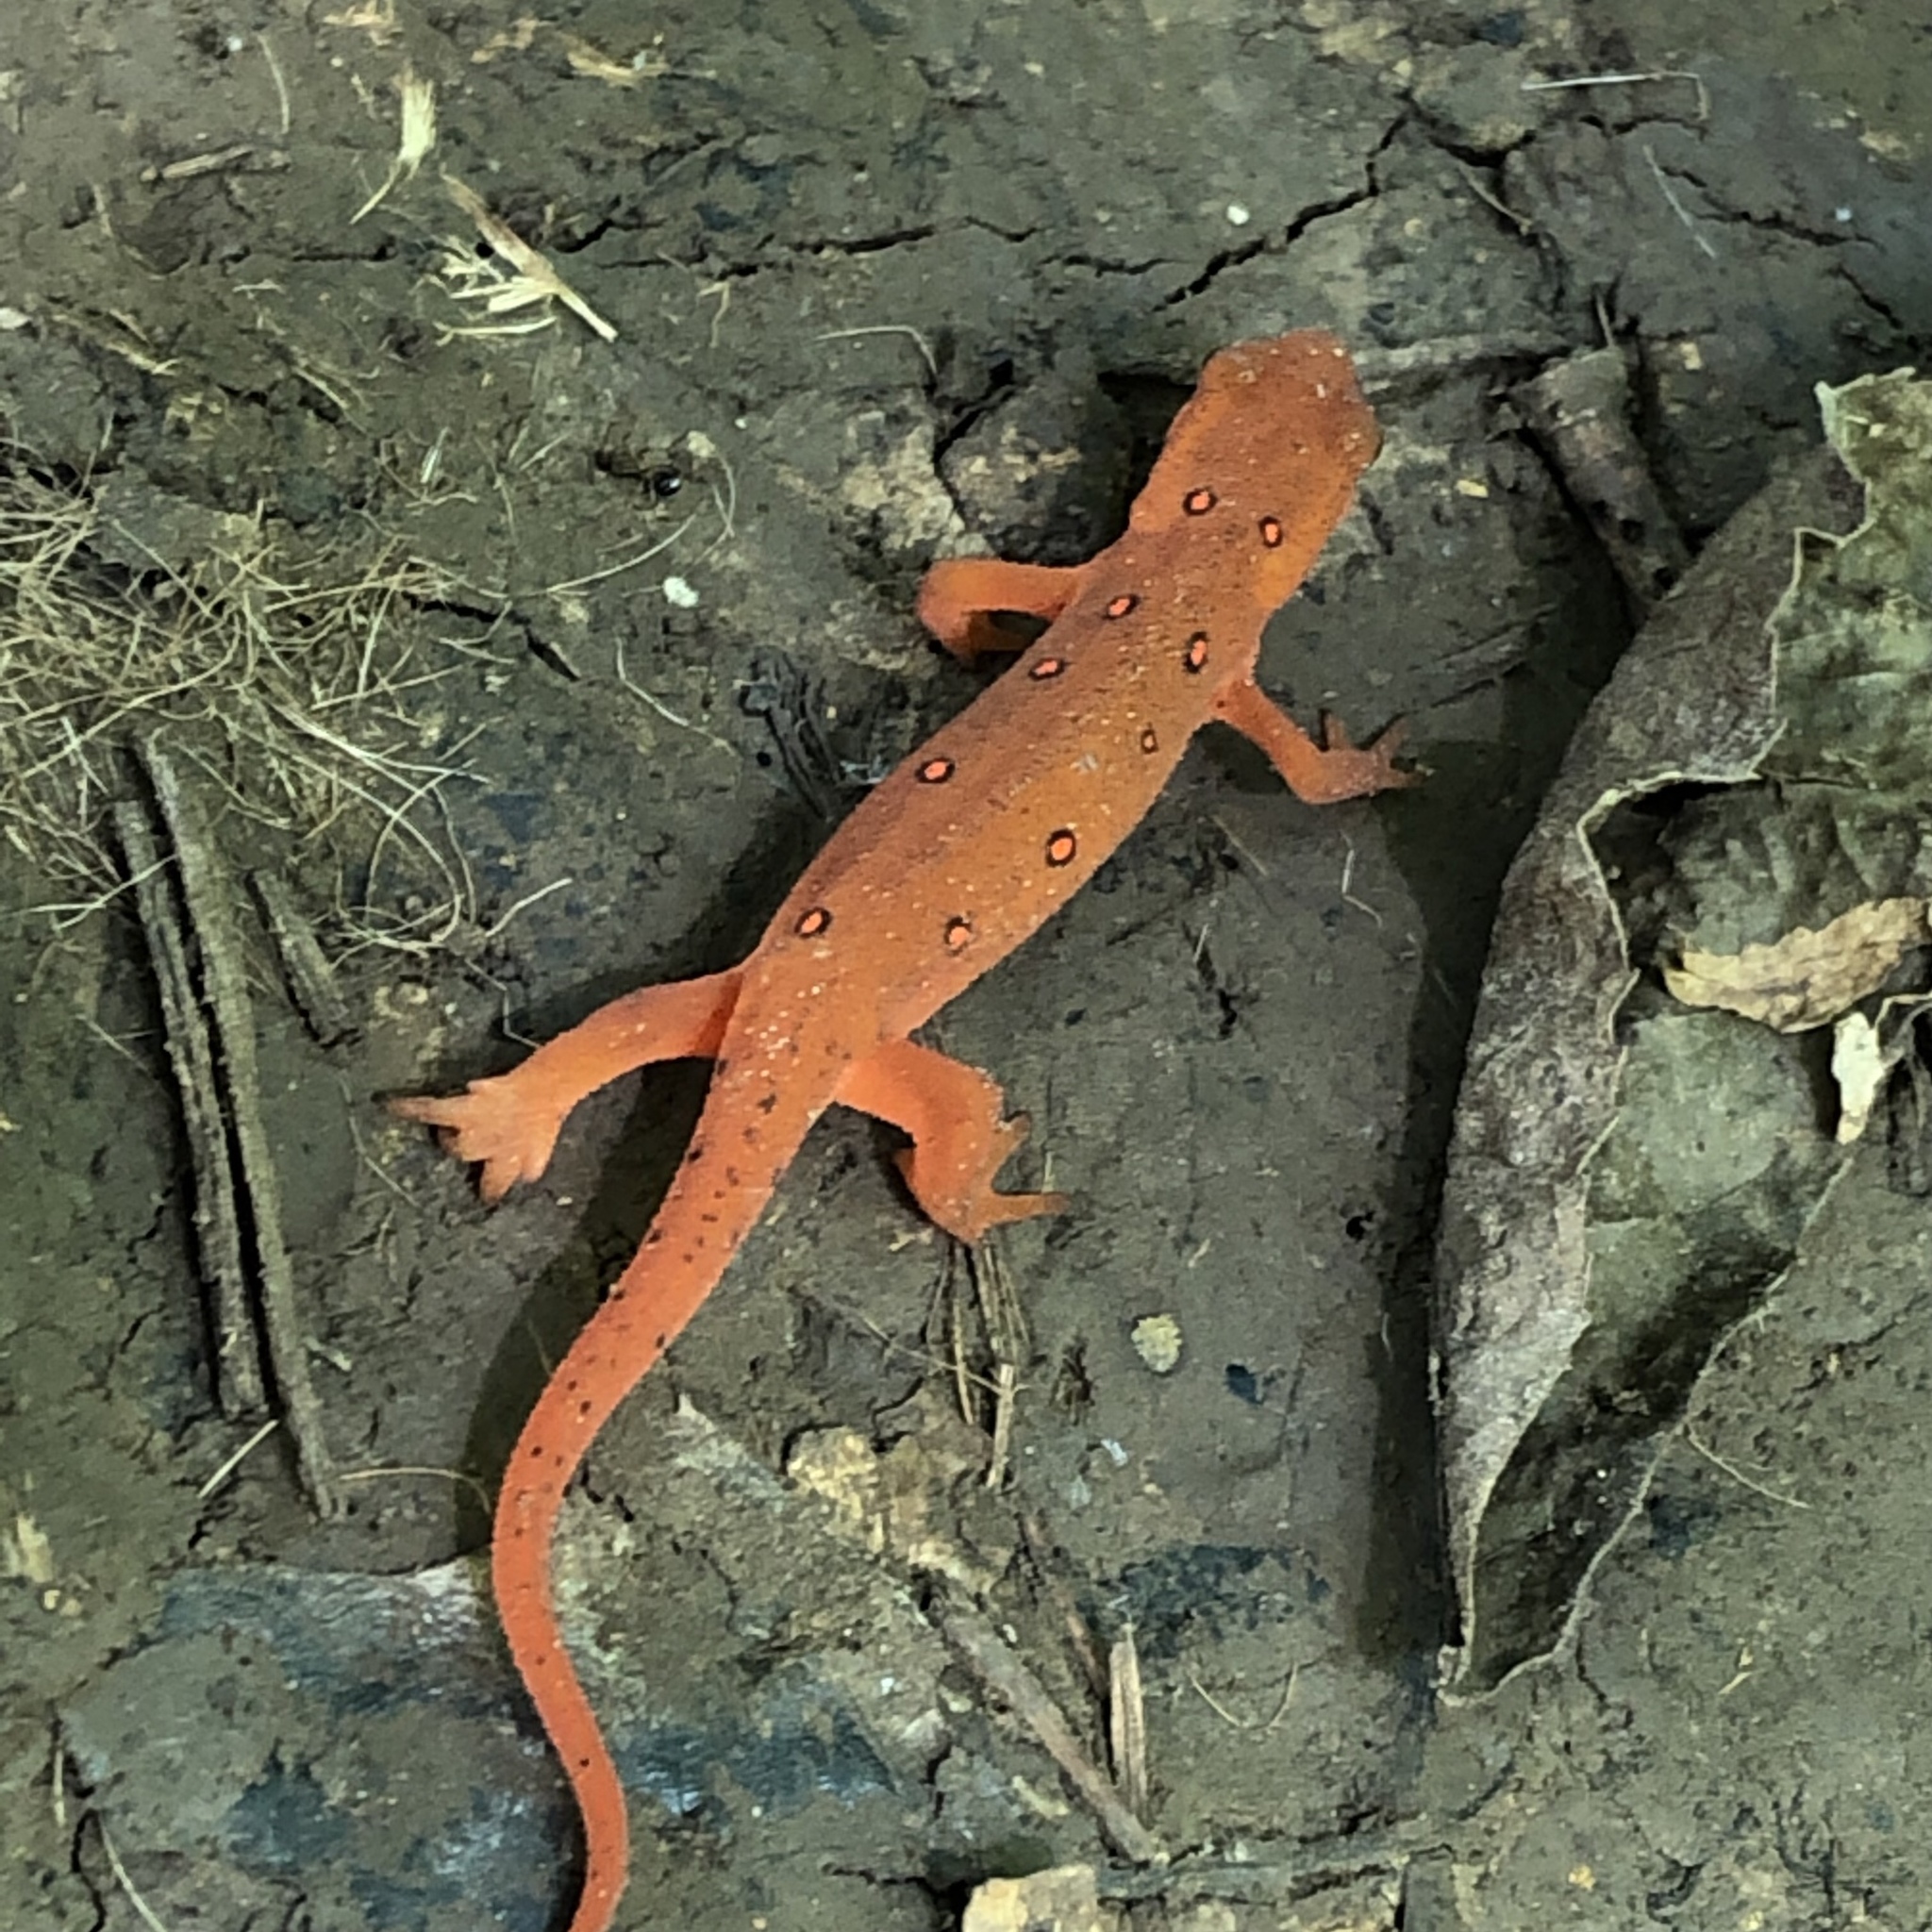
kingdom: Animalia
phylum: Chordata
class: Amphibia
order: Caudata
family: Salamandridae
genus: Notophthalmus
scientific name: Notophthalmus viridescens
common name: Eastern newt
